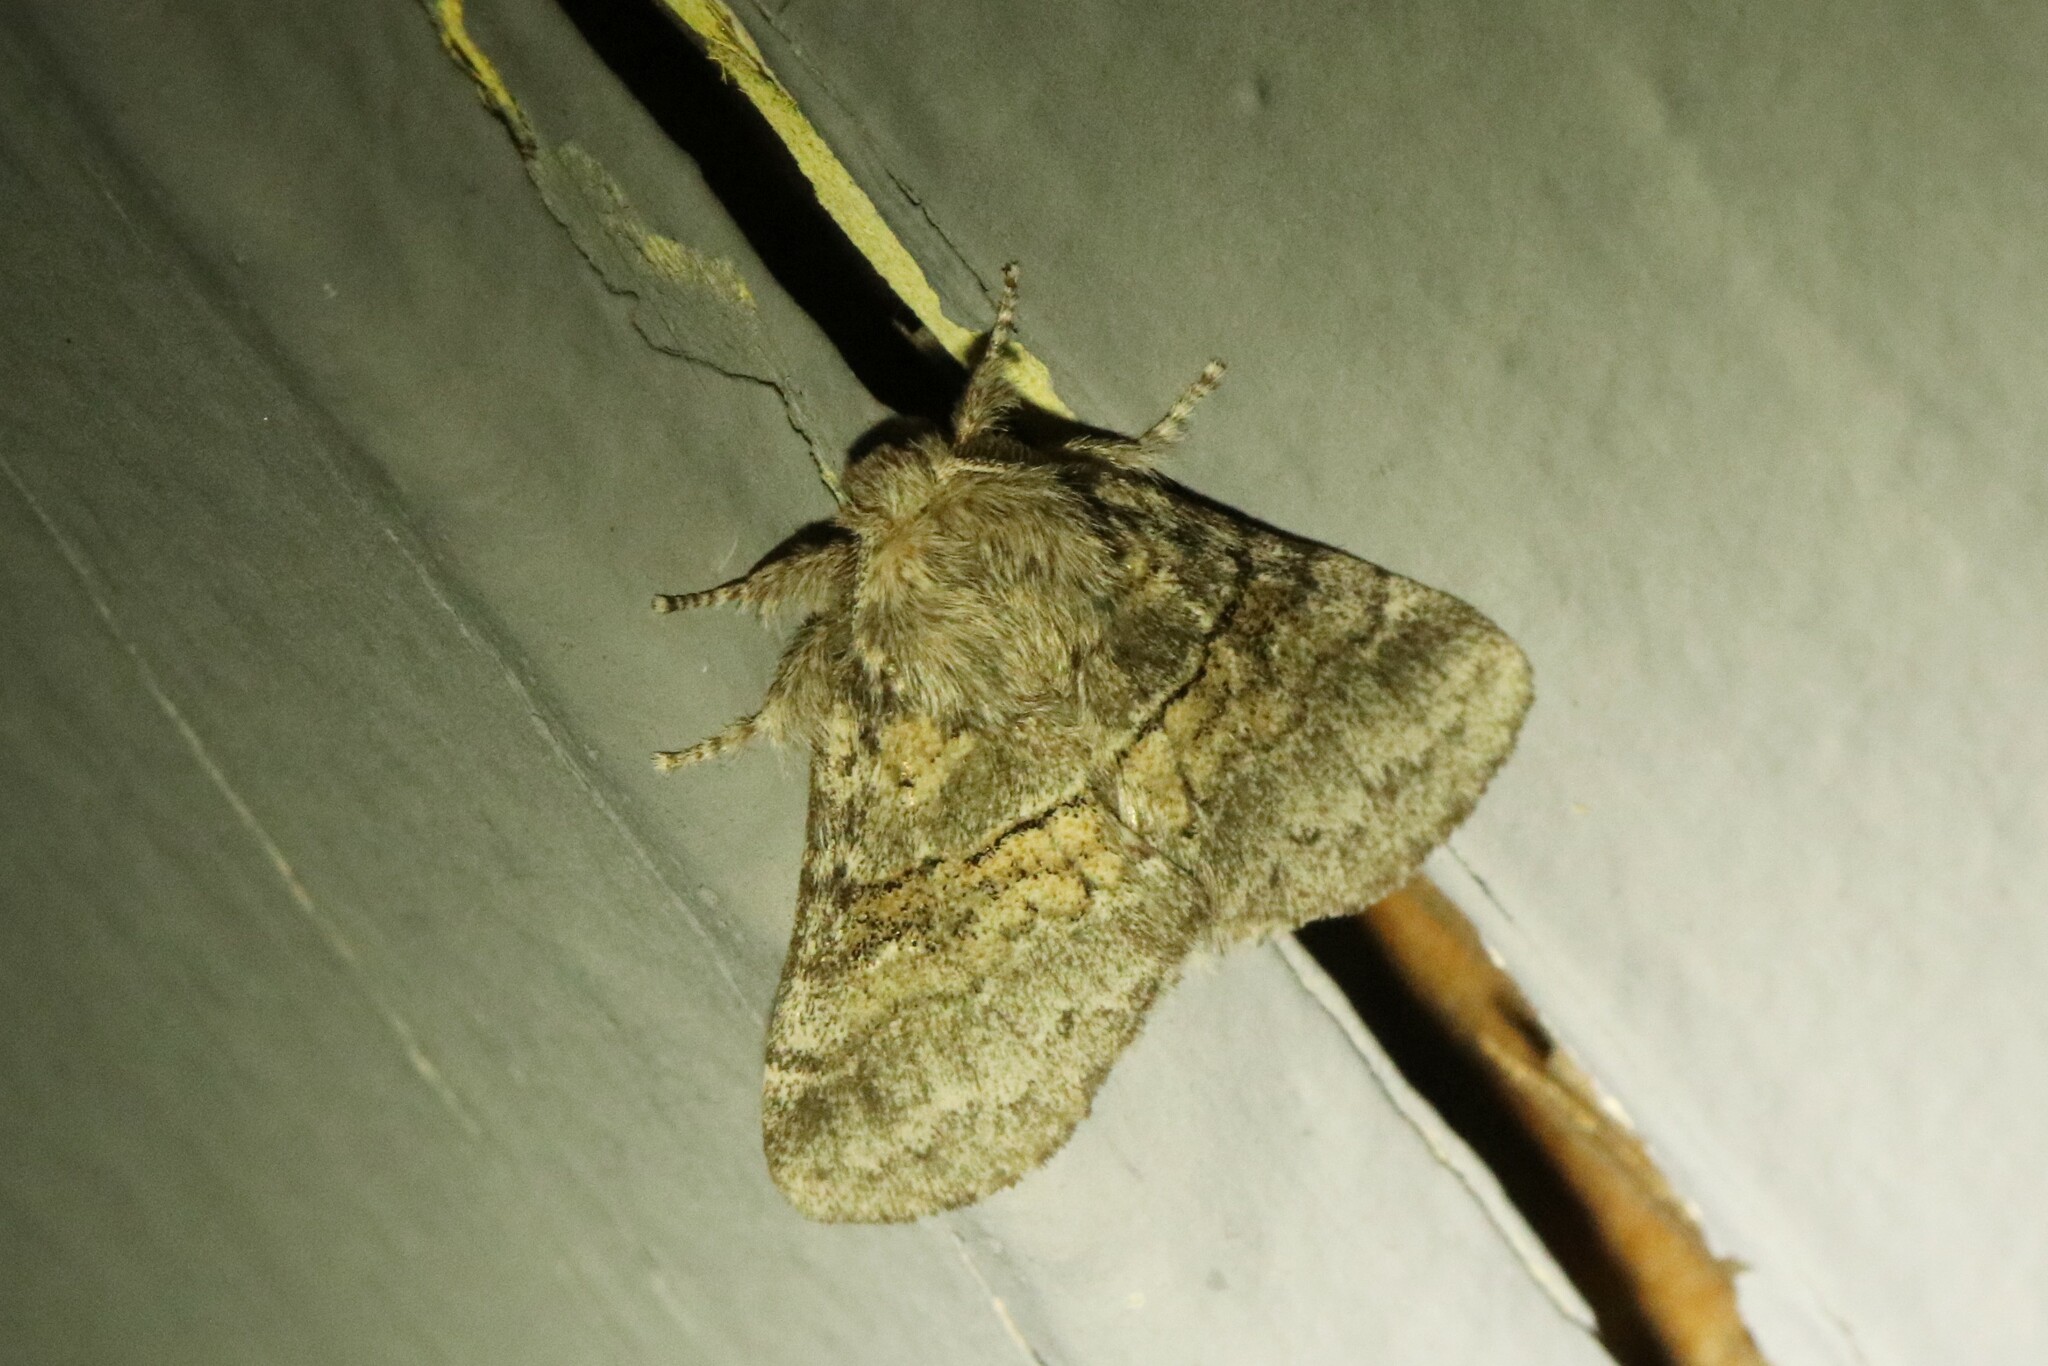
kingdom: Animalia
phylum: Arthropoda
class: Insecta
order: Lepidoptera
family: Notodontidae
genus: Gluphisia
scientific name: Gluphisia septentrionis
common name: Common gluphisia
